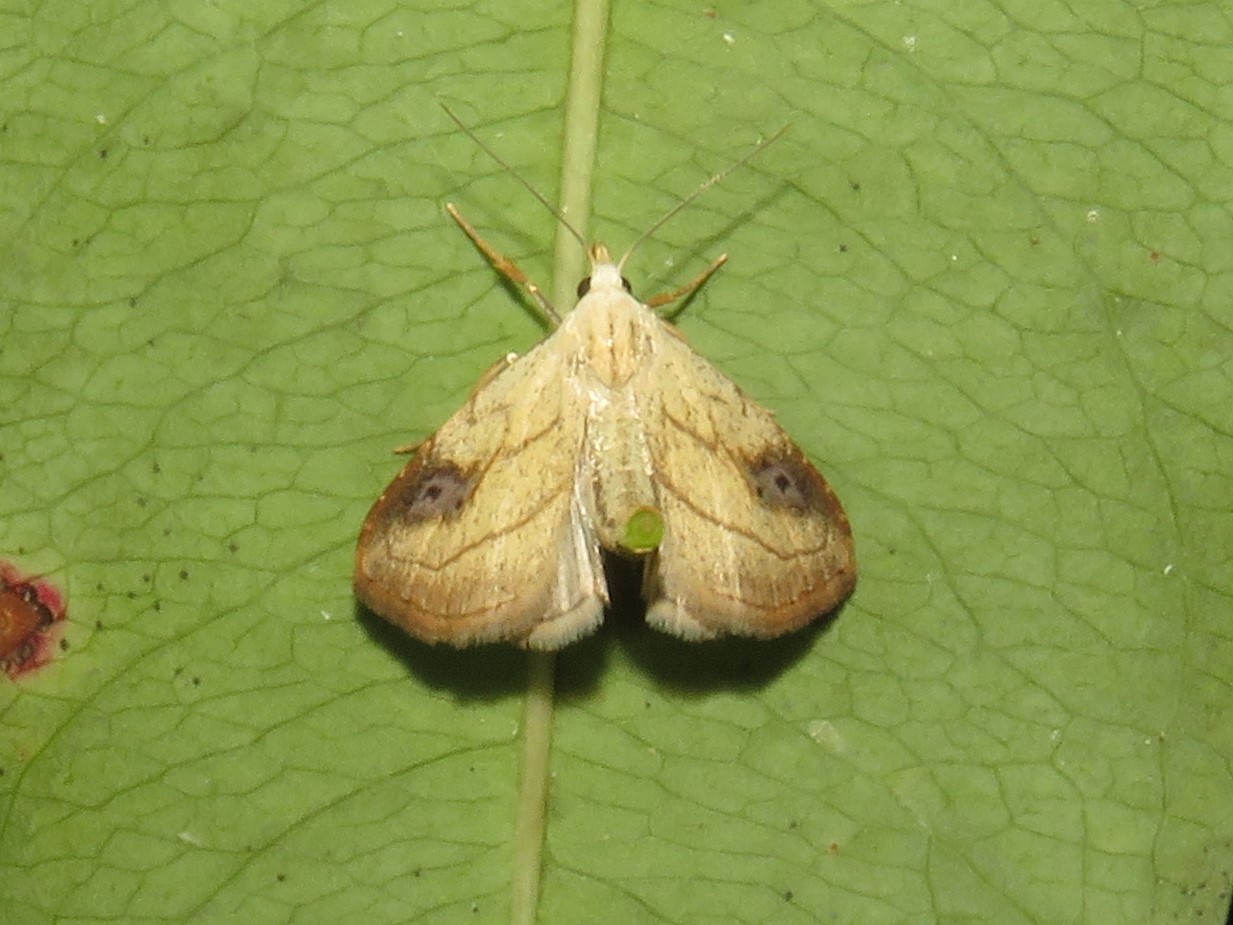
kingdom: Animalia
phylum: Arthropoda
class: Insecta
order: Lepidoptera
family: Erebidae
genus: Rivula
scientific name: Rivula propinqualis
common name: Spotted grass moth
